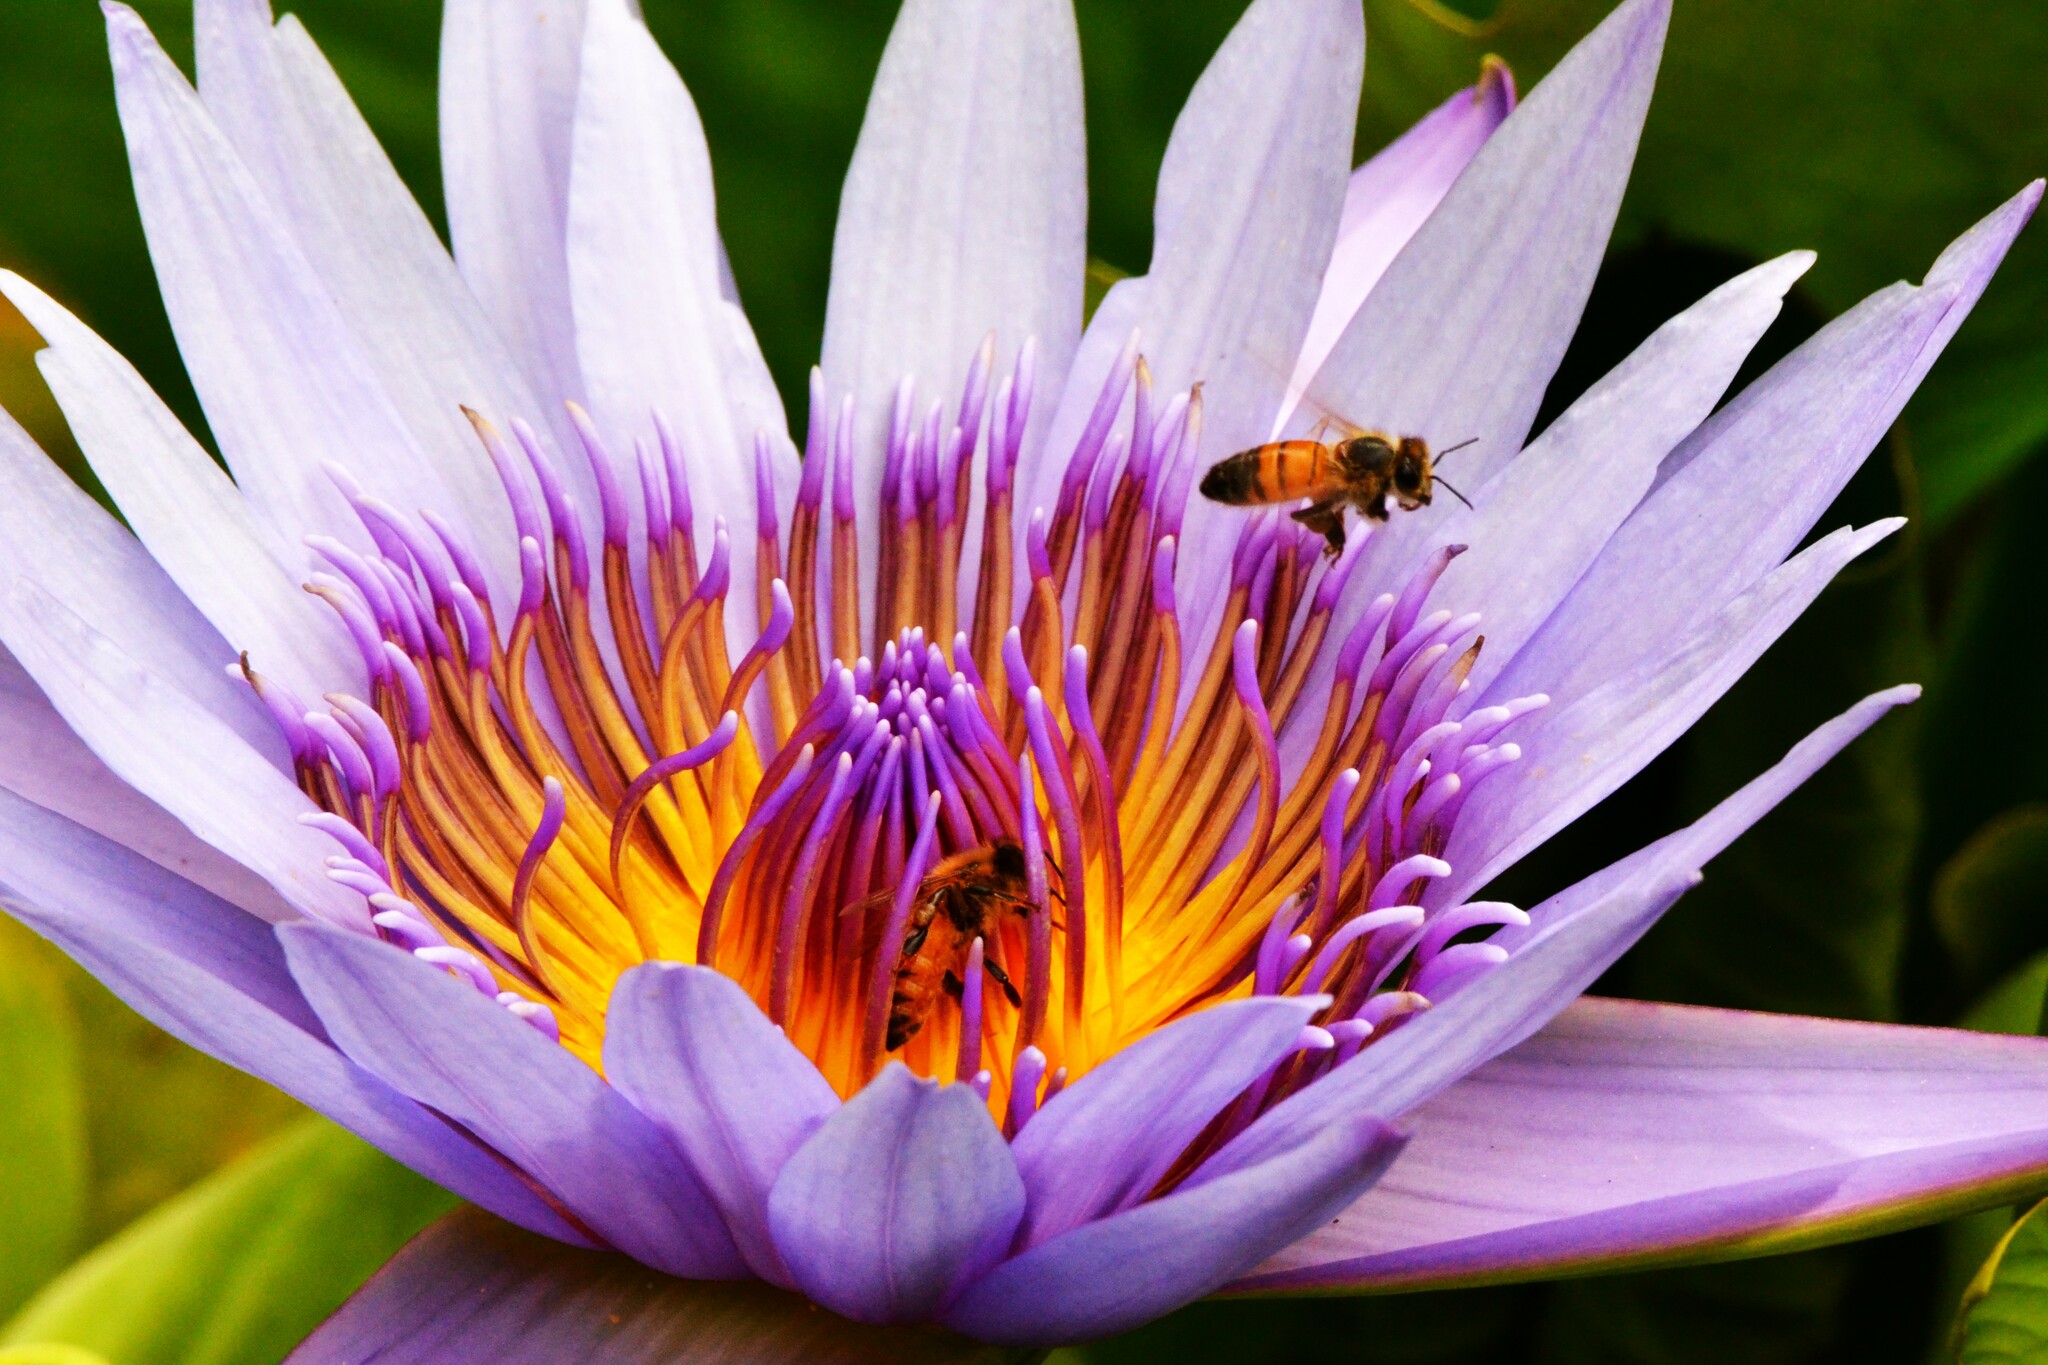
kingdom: Animalia
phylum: Arthropoda
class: Insecta
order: Hymenoptera
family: Apidae
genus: Apis
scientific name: Apis mellifera
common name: Honey bee
